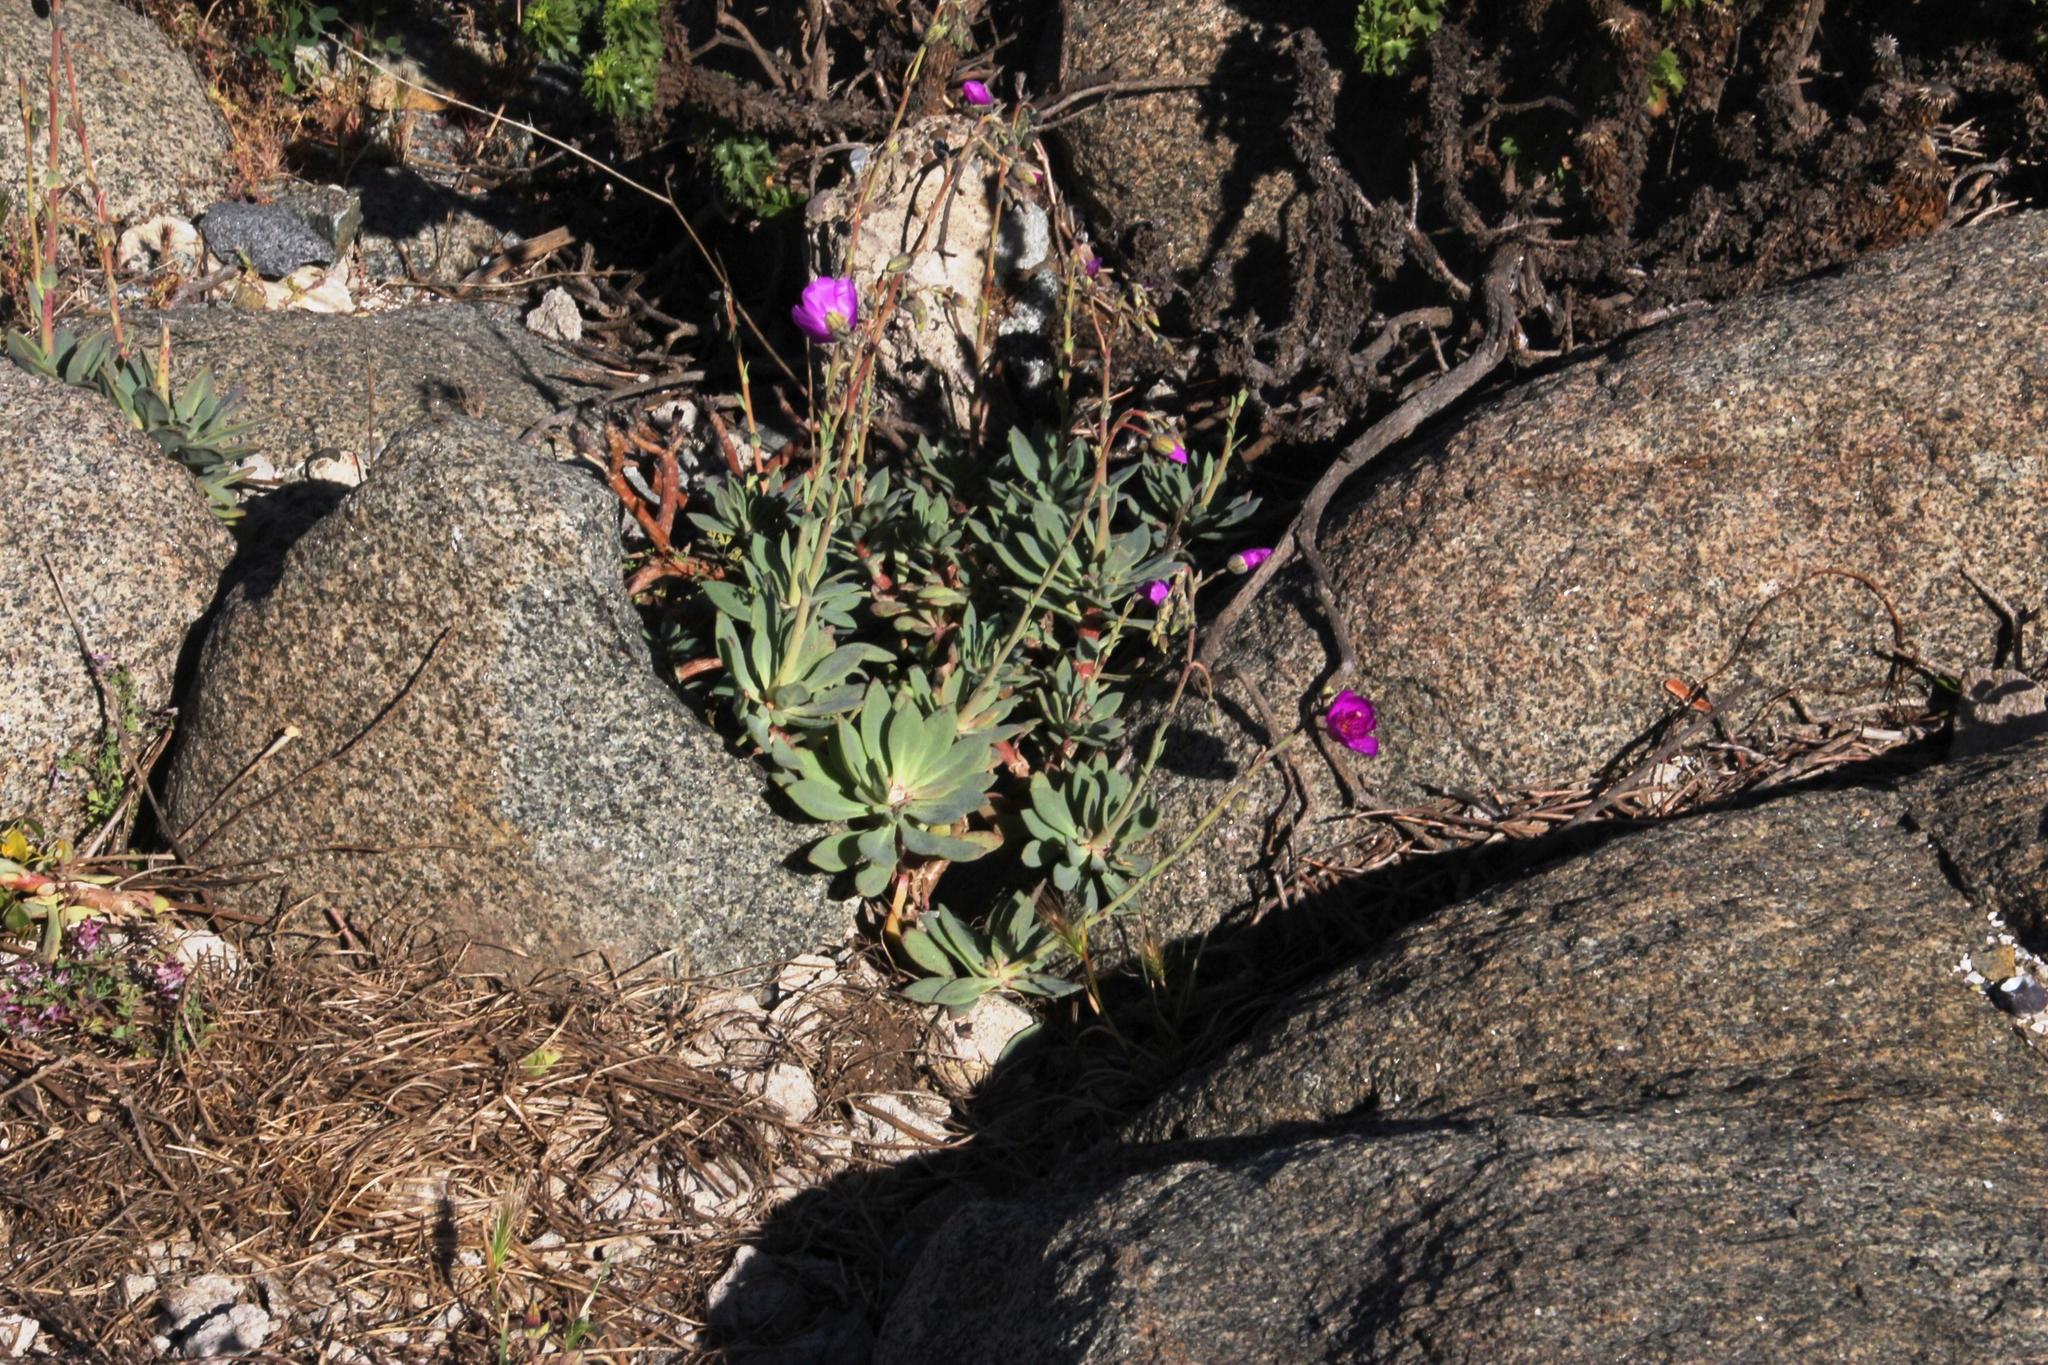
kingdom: Plantae
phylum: Tracheophyta
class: Magnoliopsida
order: Caryophyllales
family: Montiaceae
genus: Cistanthe
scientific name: Cistanthe grandiflora
